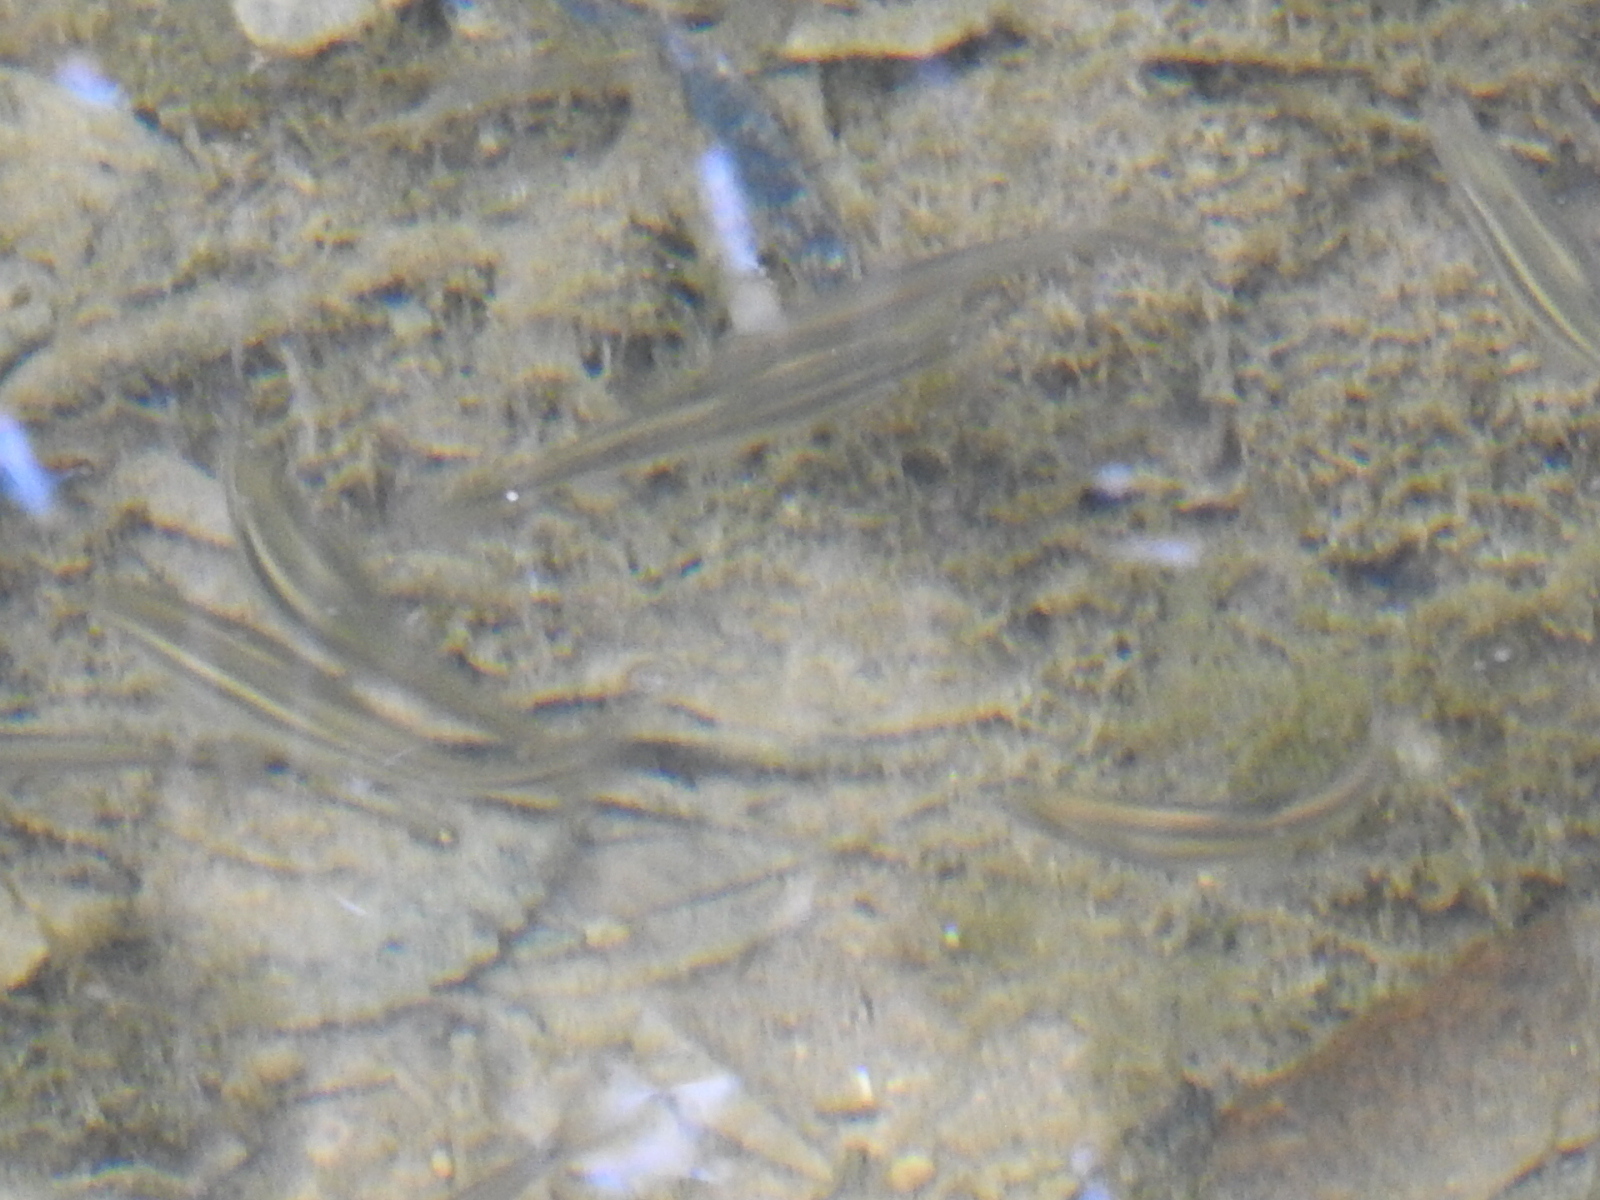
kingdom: Animalia
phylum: Chordata
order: Cypriniformes
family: Cyprinidae
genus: Cyprinella
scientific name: Cyprinella venusta
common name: Blacktail shiner
